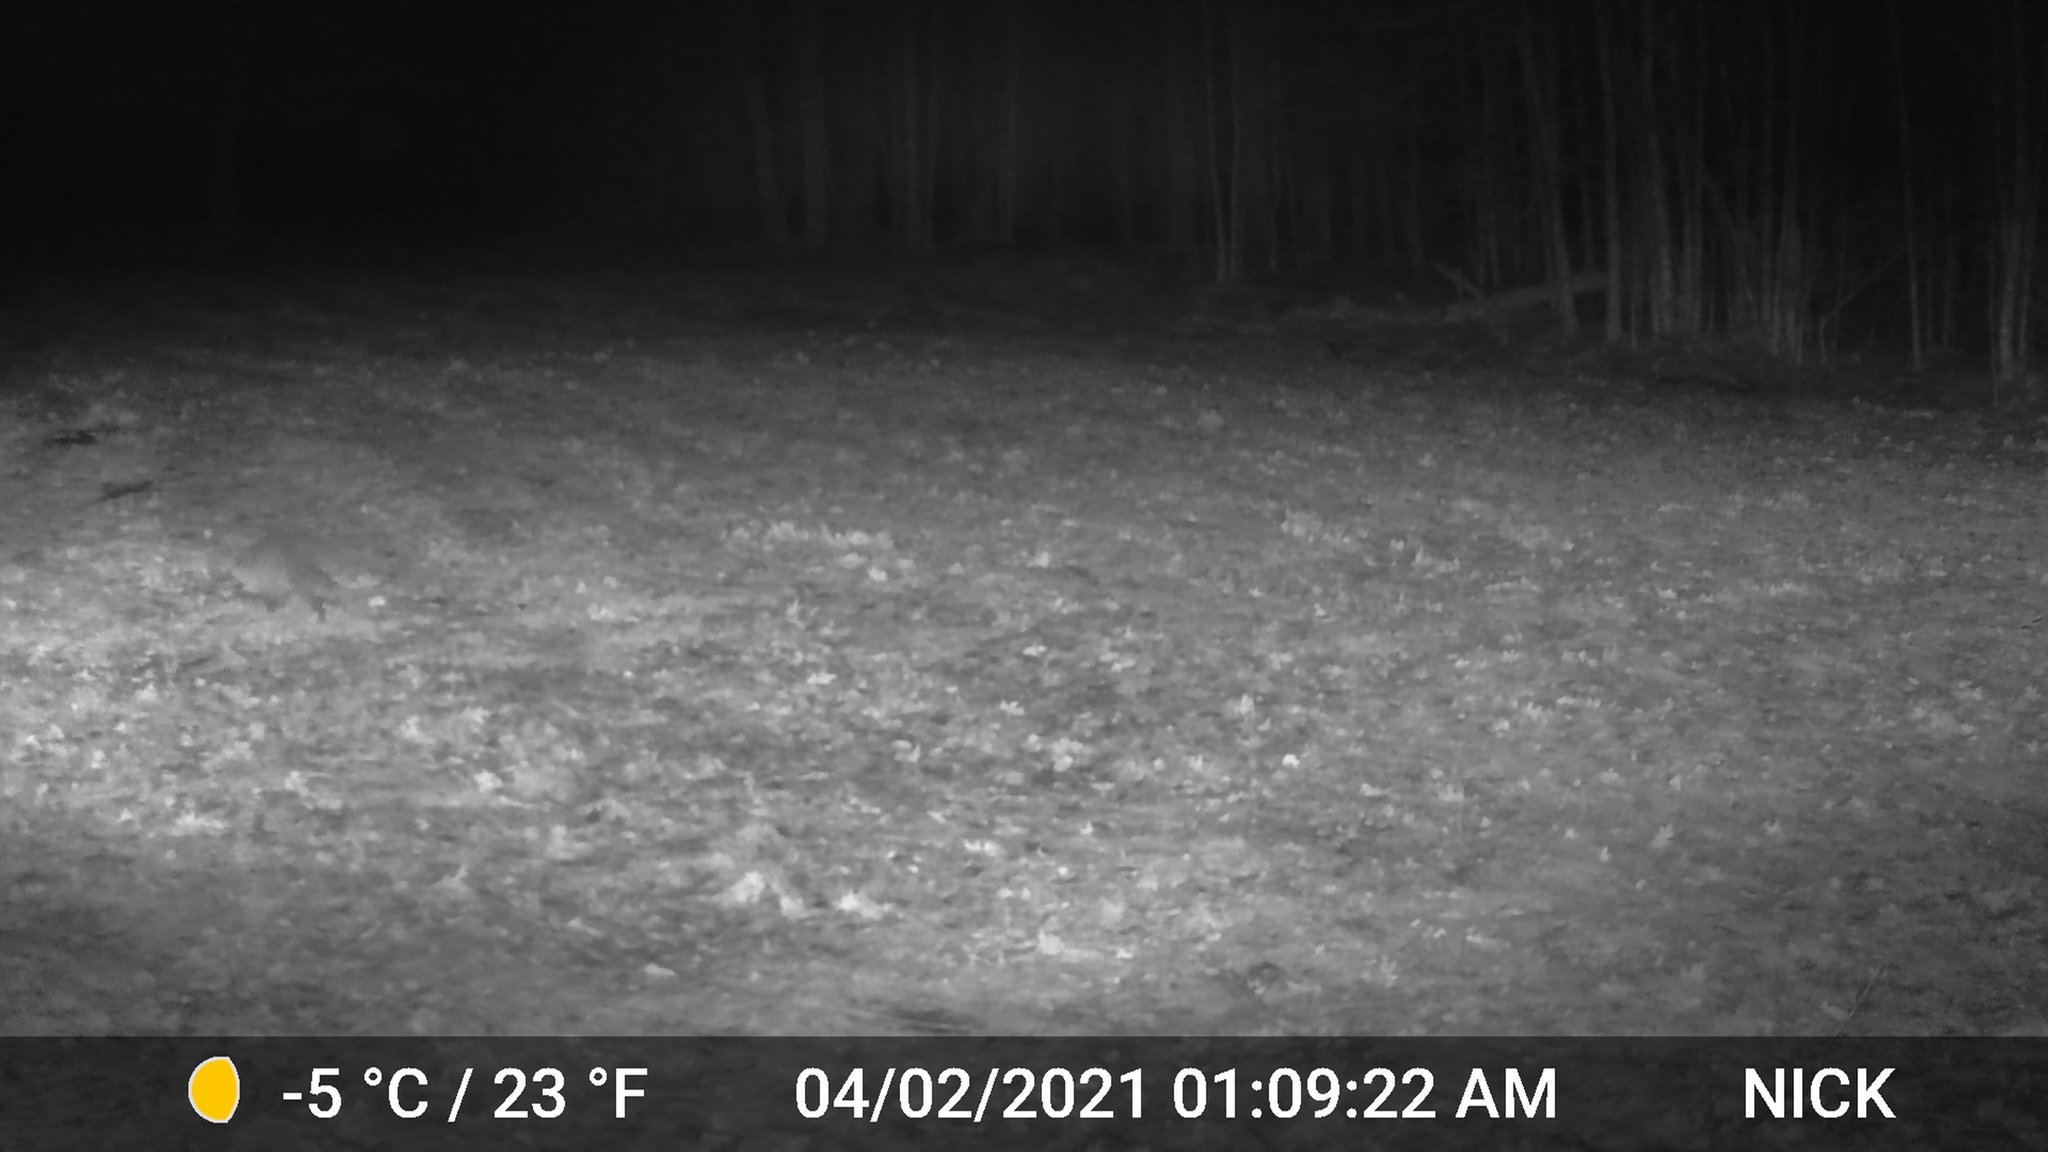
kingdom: Animalia
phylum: Chordata
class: Mammalia
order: Carnivora
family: Procyonidae
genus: Procyon
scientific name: Procyon lotor
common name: Raccoon
